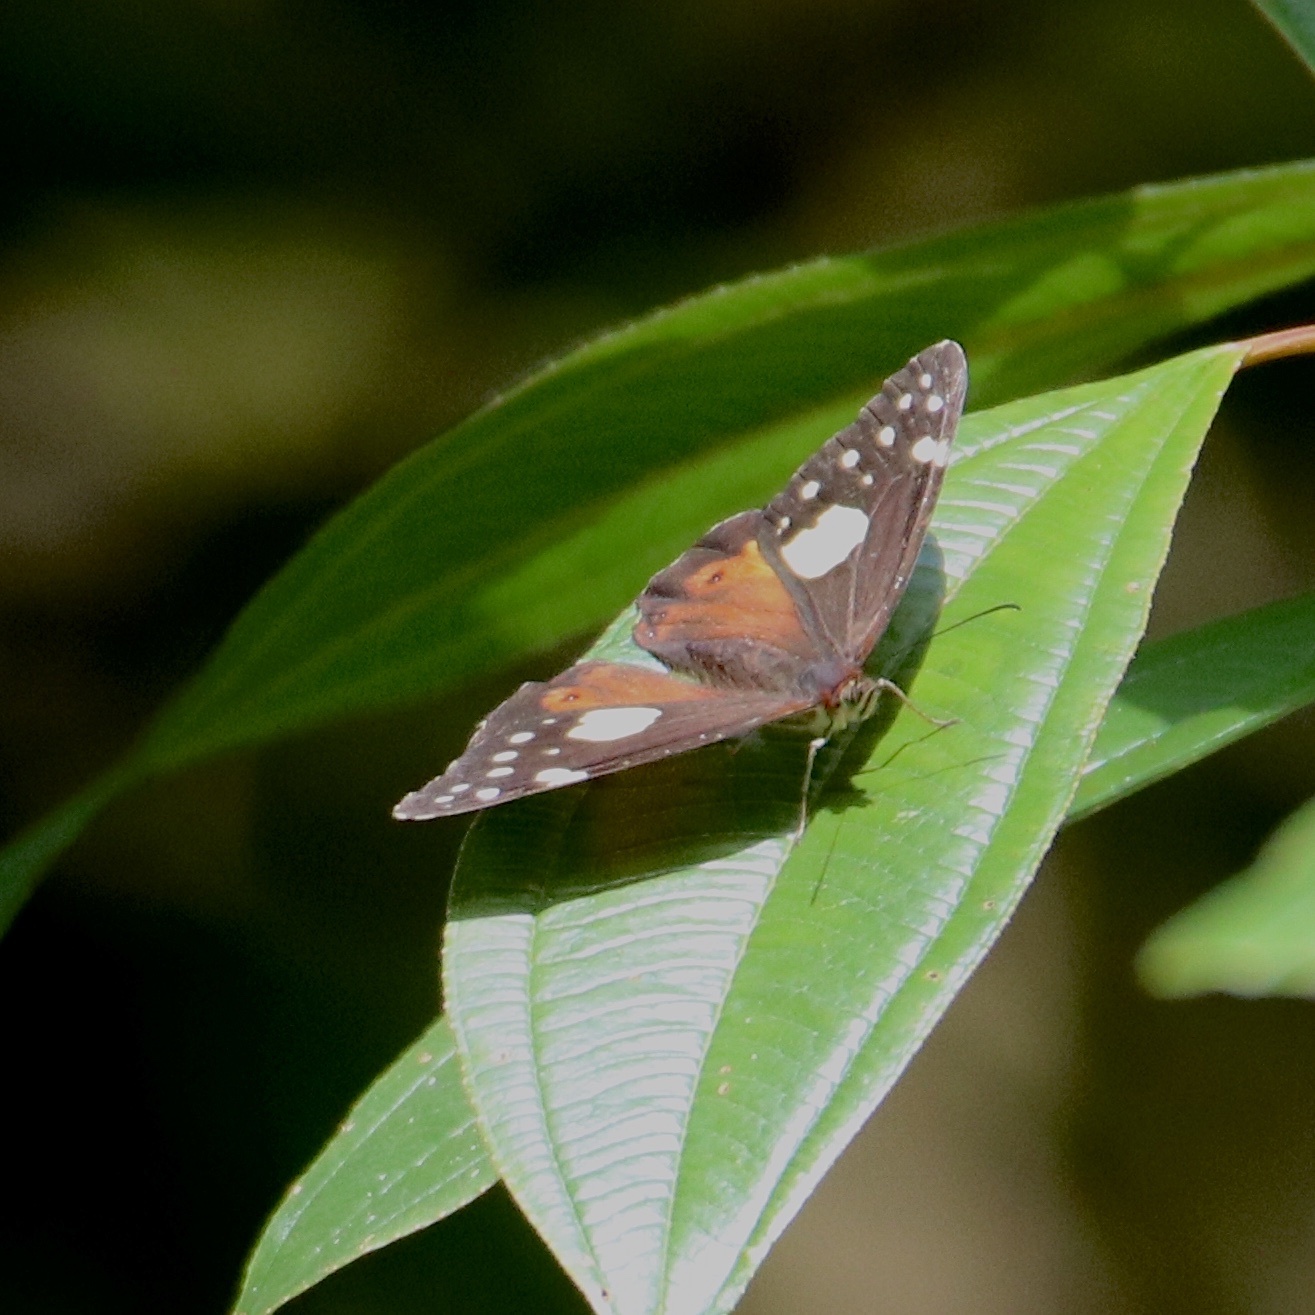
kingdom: Animalia
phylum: Arthropoda
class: Insecta
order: Lepidoptera
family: Nymphalidae
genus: Dioriste
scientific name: Dioriste tauropolis
